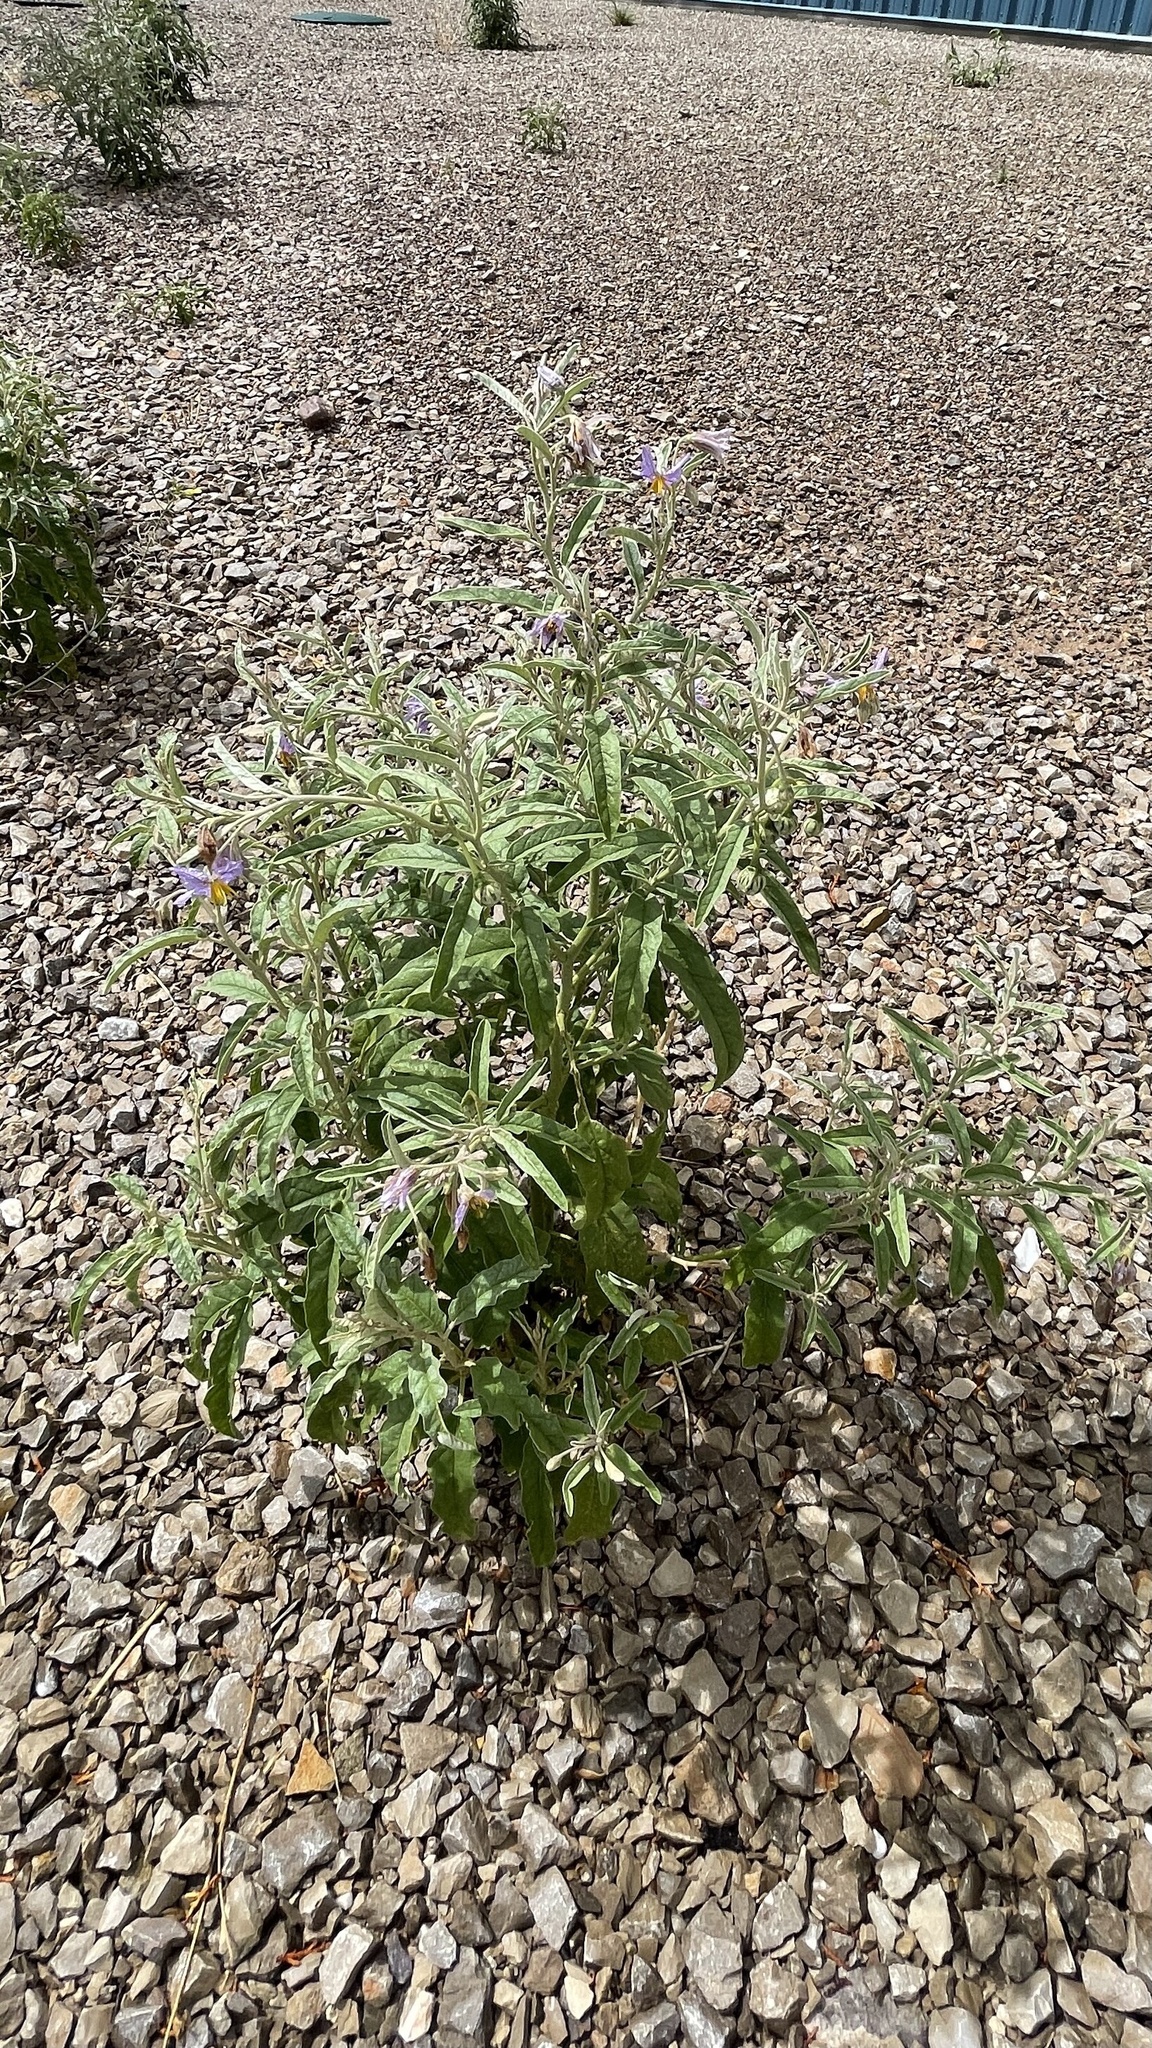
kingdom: Plantae
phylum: Tracheophyta
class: Magnoliopsida
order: Solanales
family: Solanaceae
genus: Solanum
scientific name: Solanum elaeagnifolium
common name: Silverleaf nightshade
